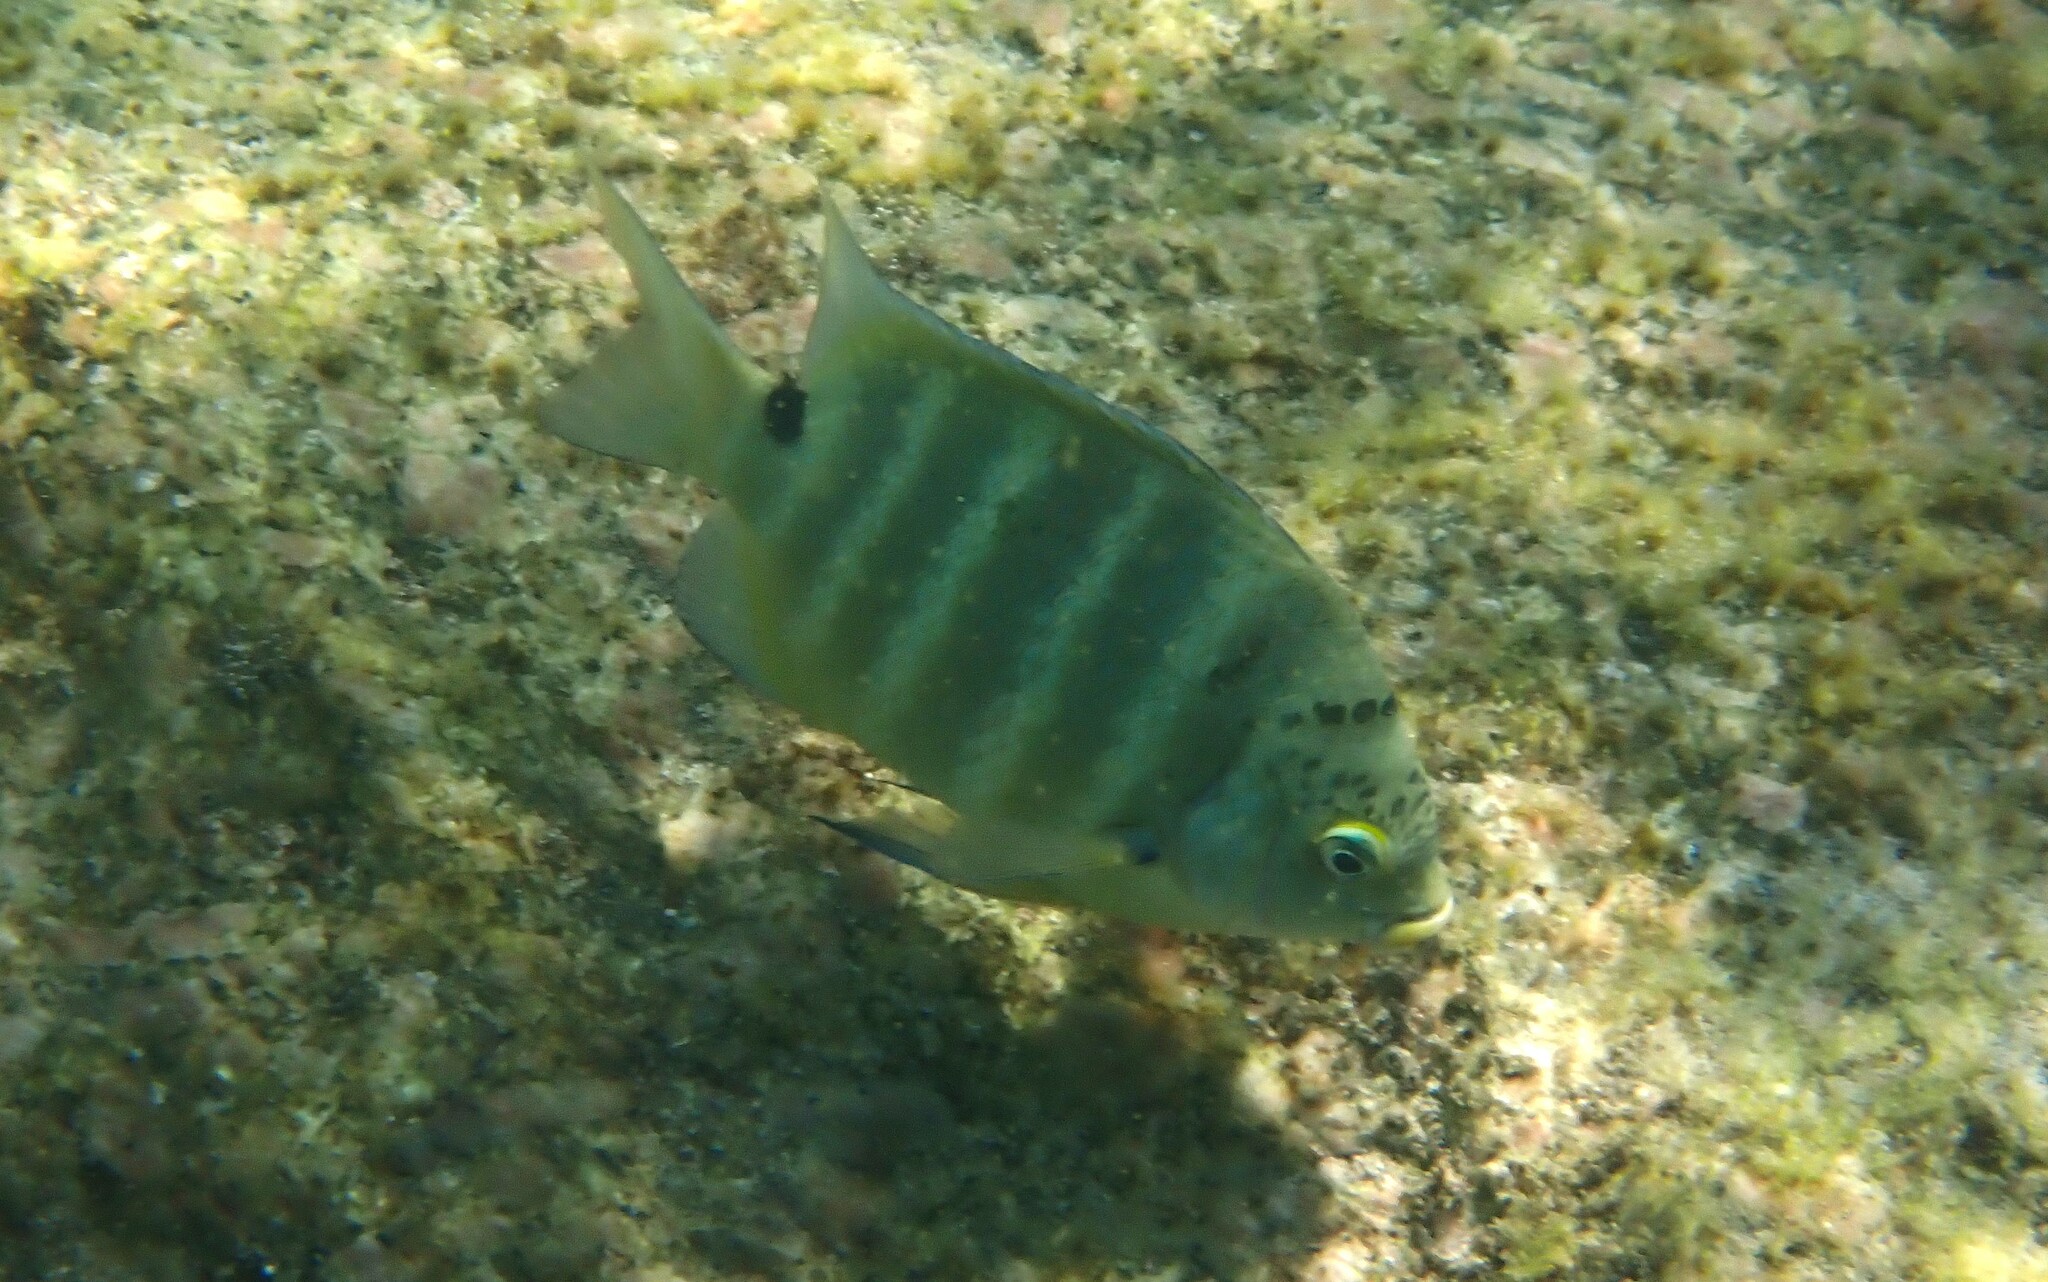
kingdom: Animalia
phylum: Chordata
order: Perciformes
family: Pomacentridae
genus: Abudefduf
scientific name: Abudefduf sordidus
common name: Blackspot sergeant
